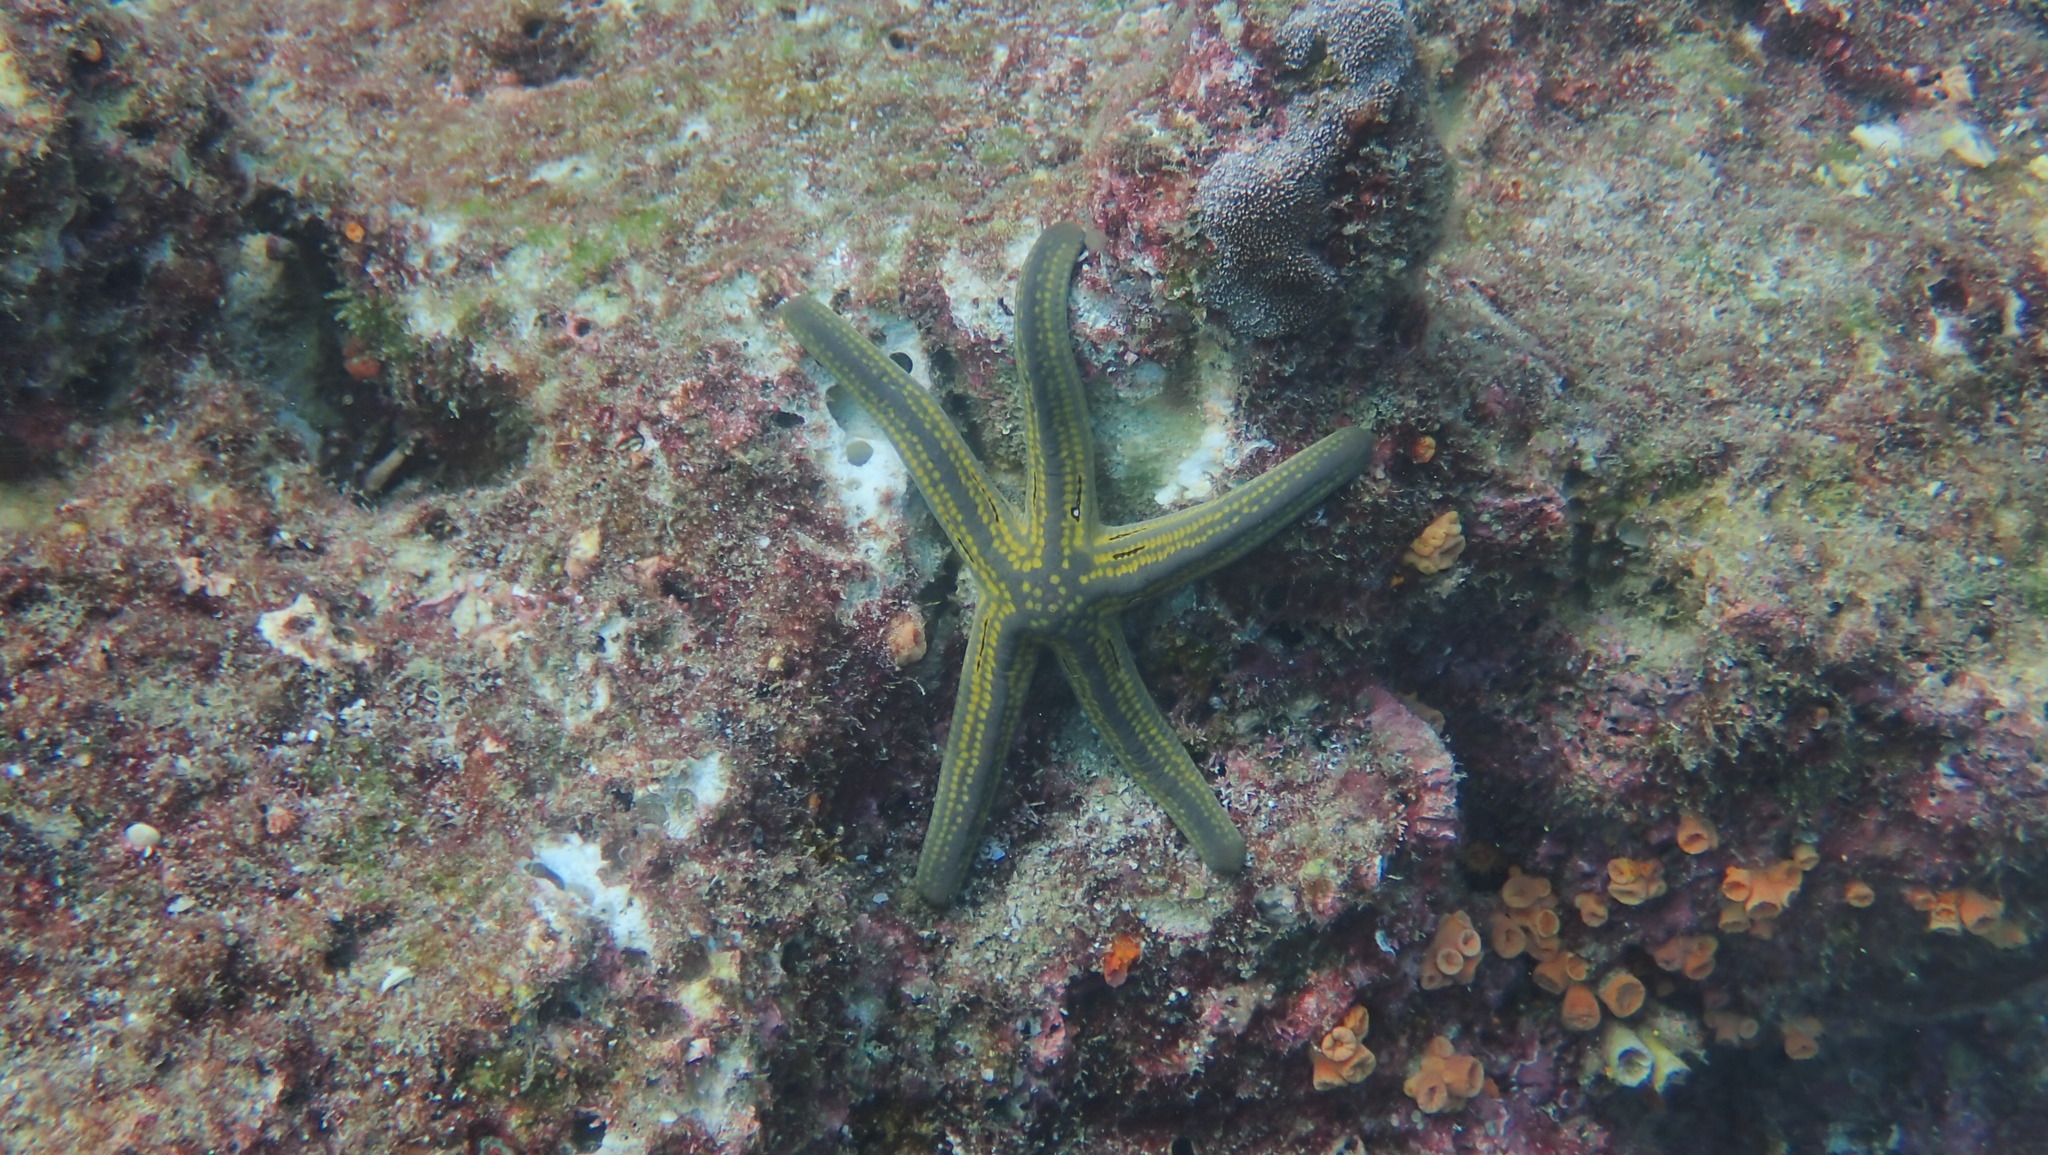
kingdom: Animalia
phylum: Echinodermata
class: Asteroidea
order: Valvatida
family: Ophidiasteridae
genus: Pharia
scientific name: Pharia pyramidata
